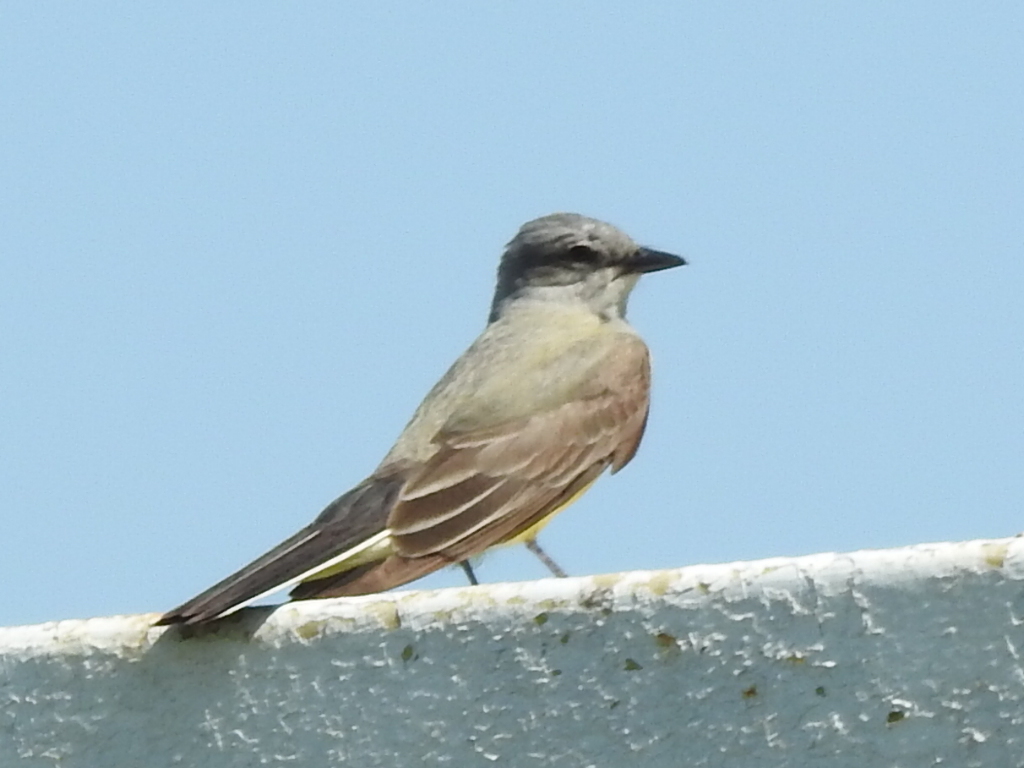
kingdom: Animalia
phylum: Chordata
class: Aves
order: Passeriformes
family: Tyrannidae
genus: Tyrannus
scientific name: Tyrannus verticalis
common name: Western kingbird
